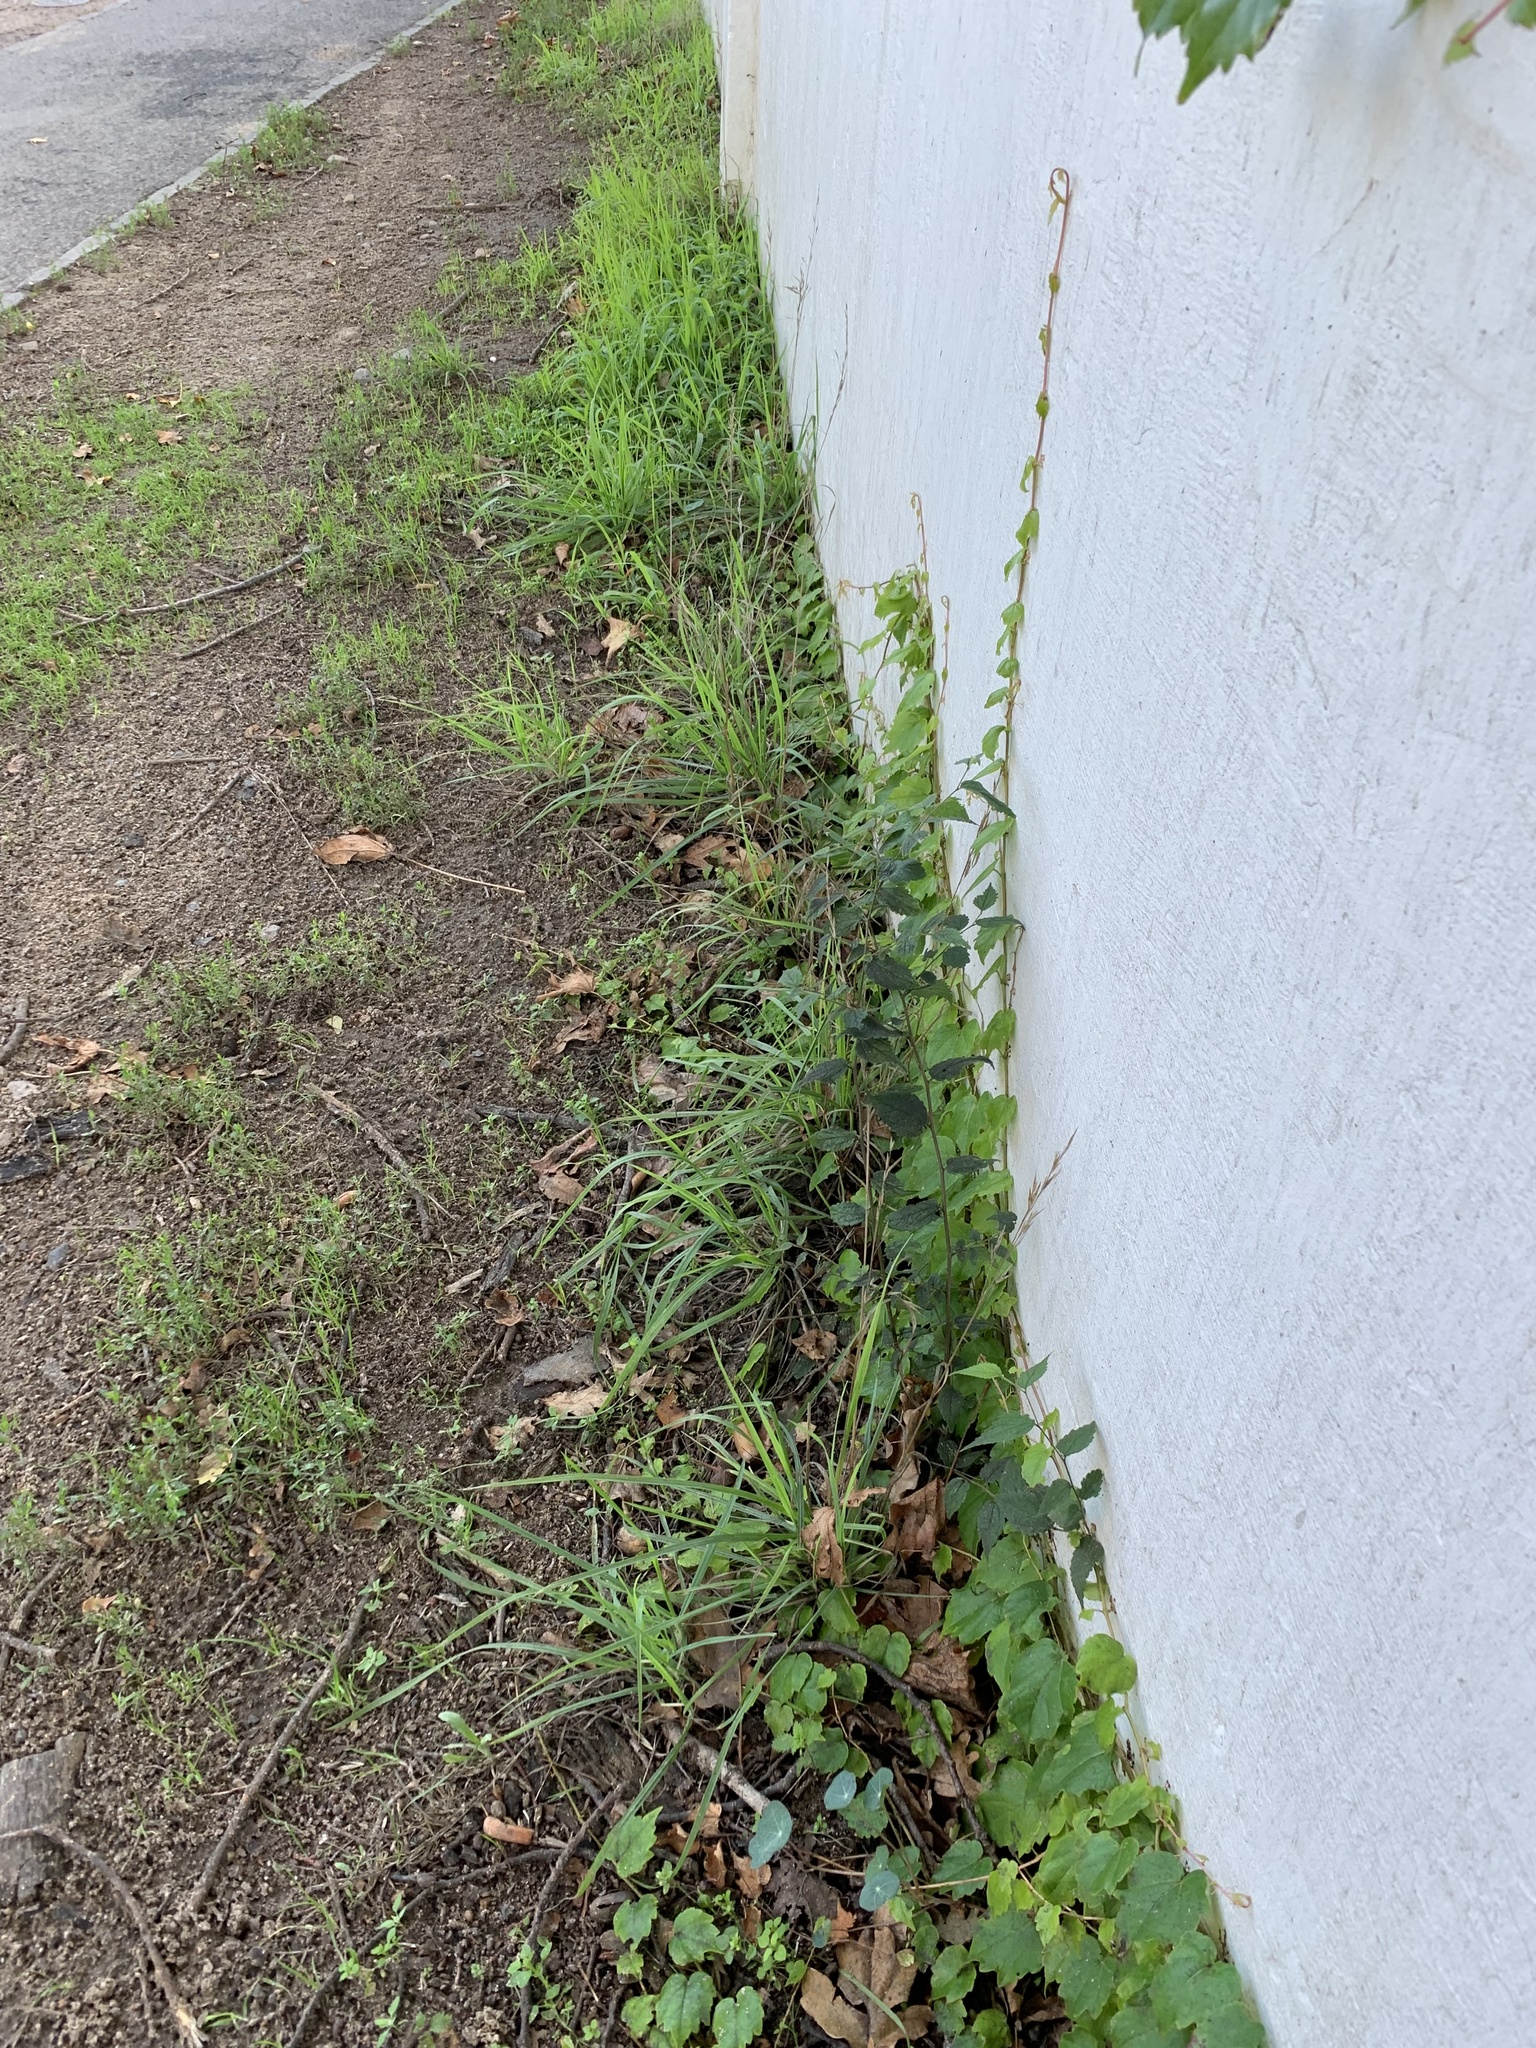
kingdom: Plantae
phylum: Tracheophyta
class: Magnoliopsida
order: Rosales
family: Cannabaceae
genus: Celtis
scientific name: Celtis africana
